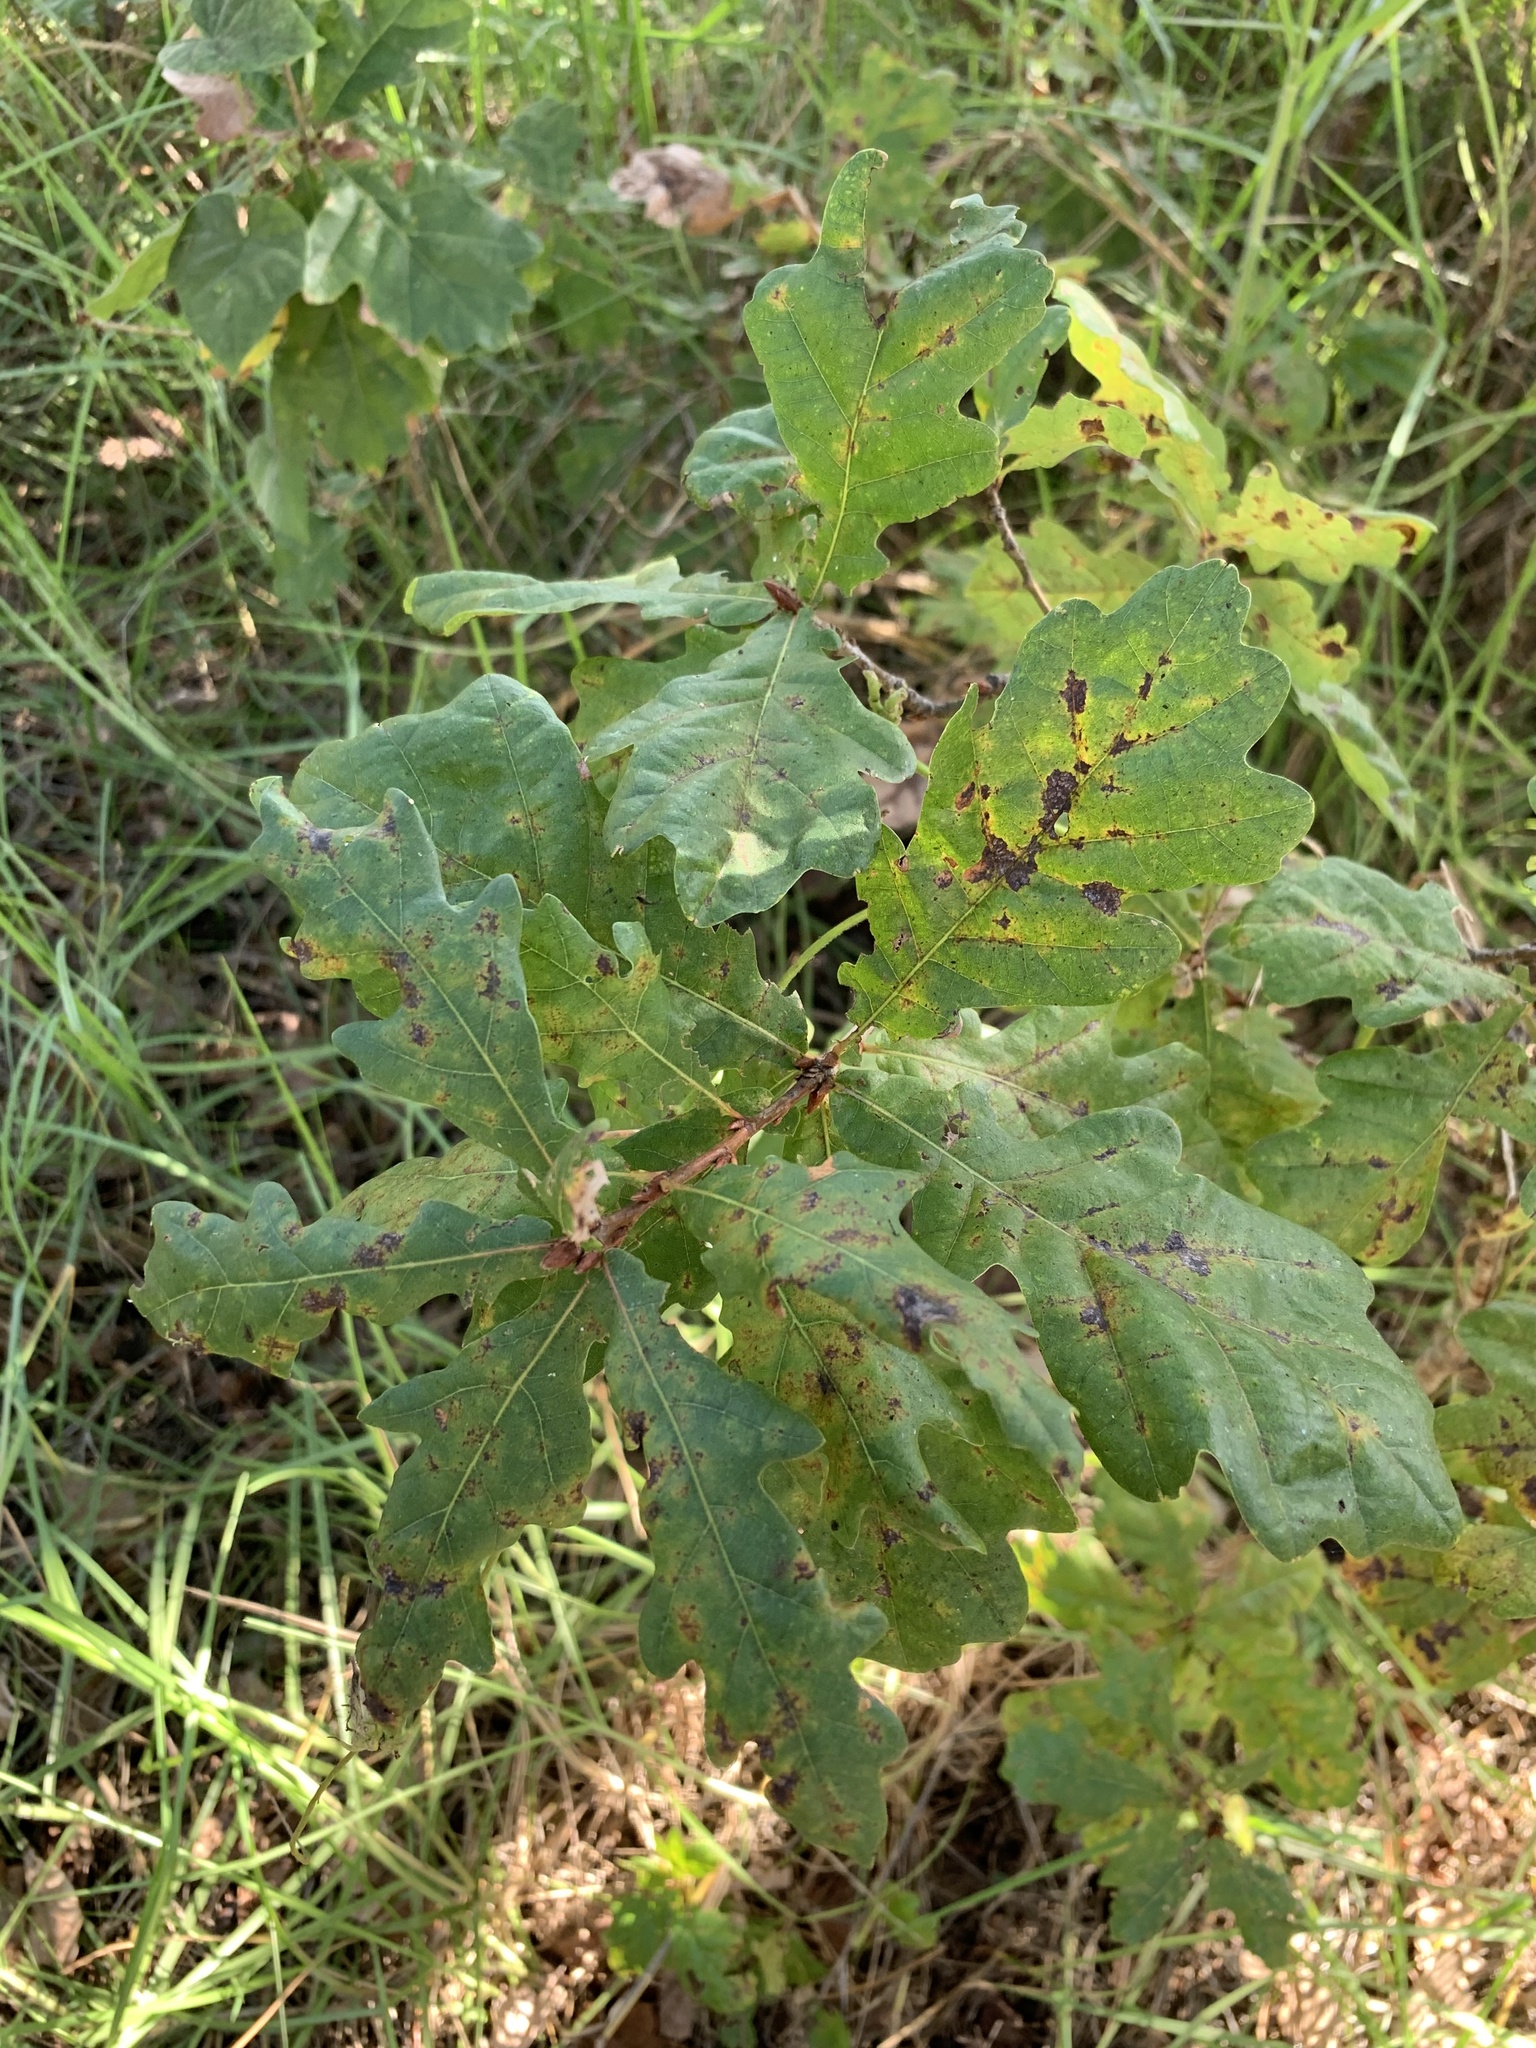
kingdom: Plantae
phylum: Tracheophyta
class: Magnoliopsida
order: Fagales
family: Fagaceae
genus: Quercus
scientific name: Quercus robur
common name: Pedunculate oak
